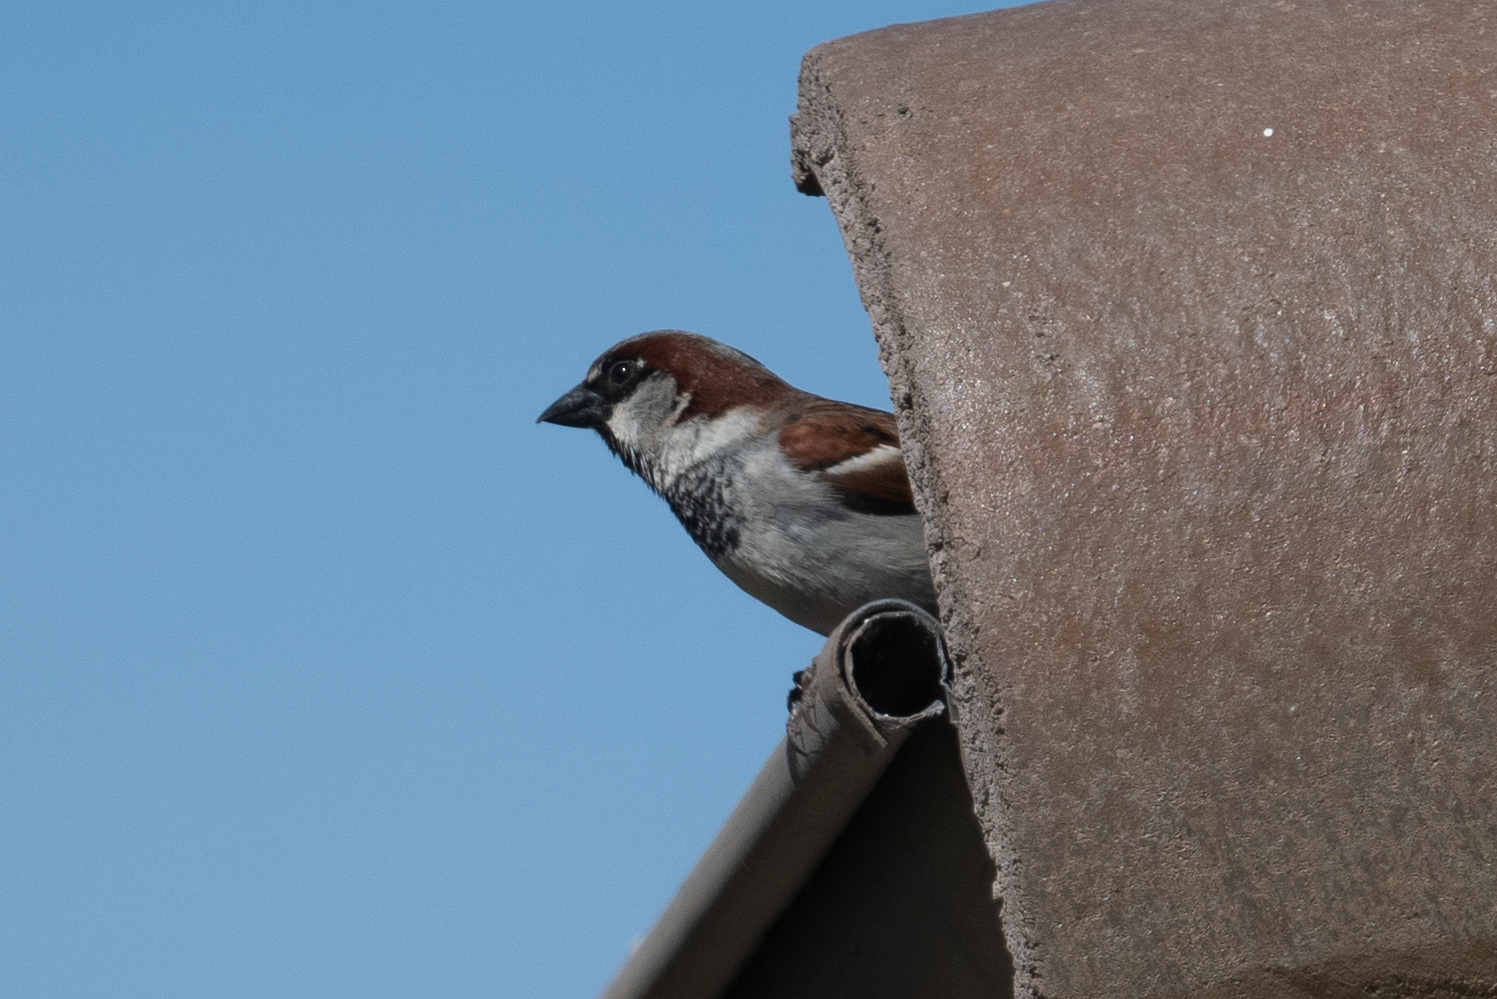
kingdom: Animalia
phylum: Chordata
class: Aves
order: Passeriformes
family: Passeridae
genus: Passer
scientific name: Passer domesticus
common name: House sparrow
